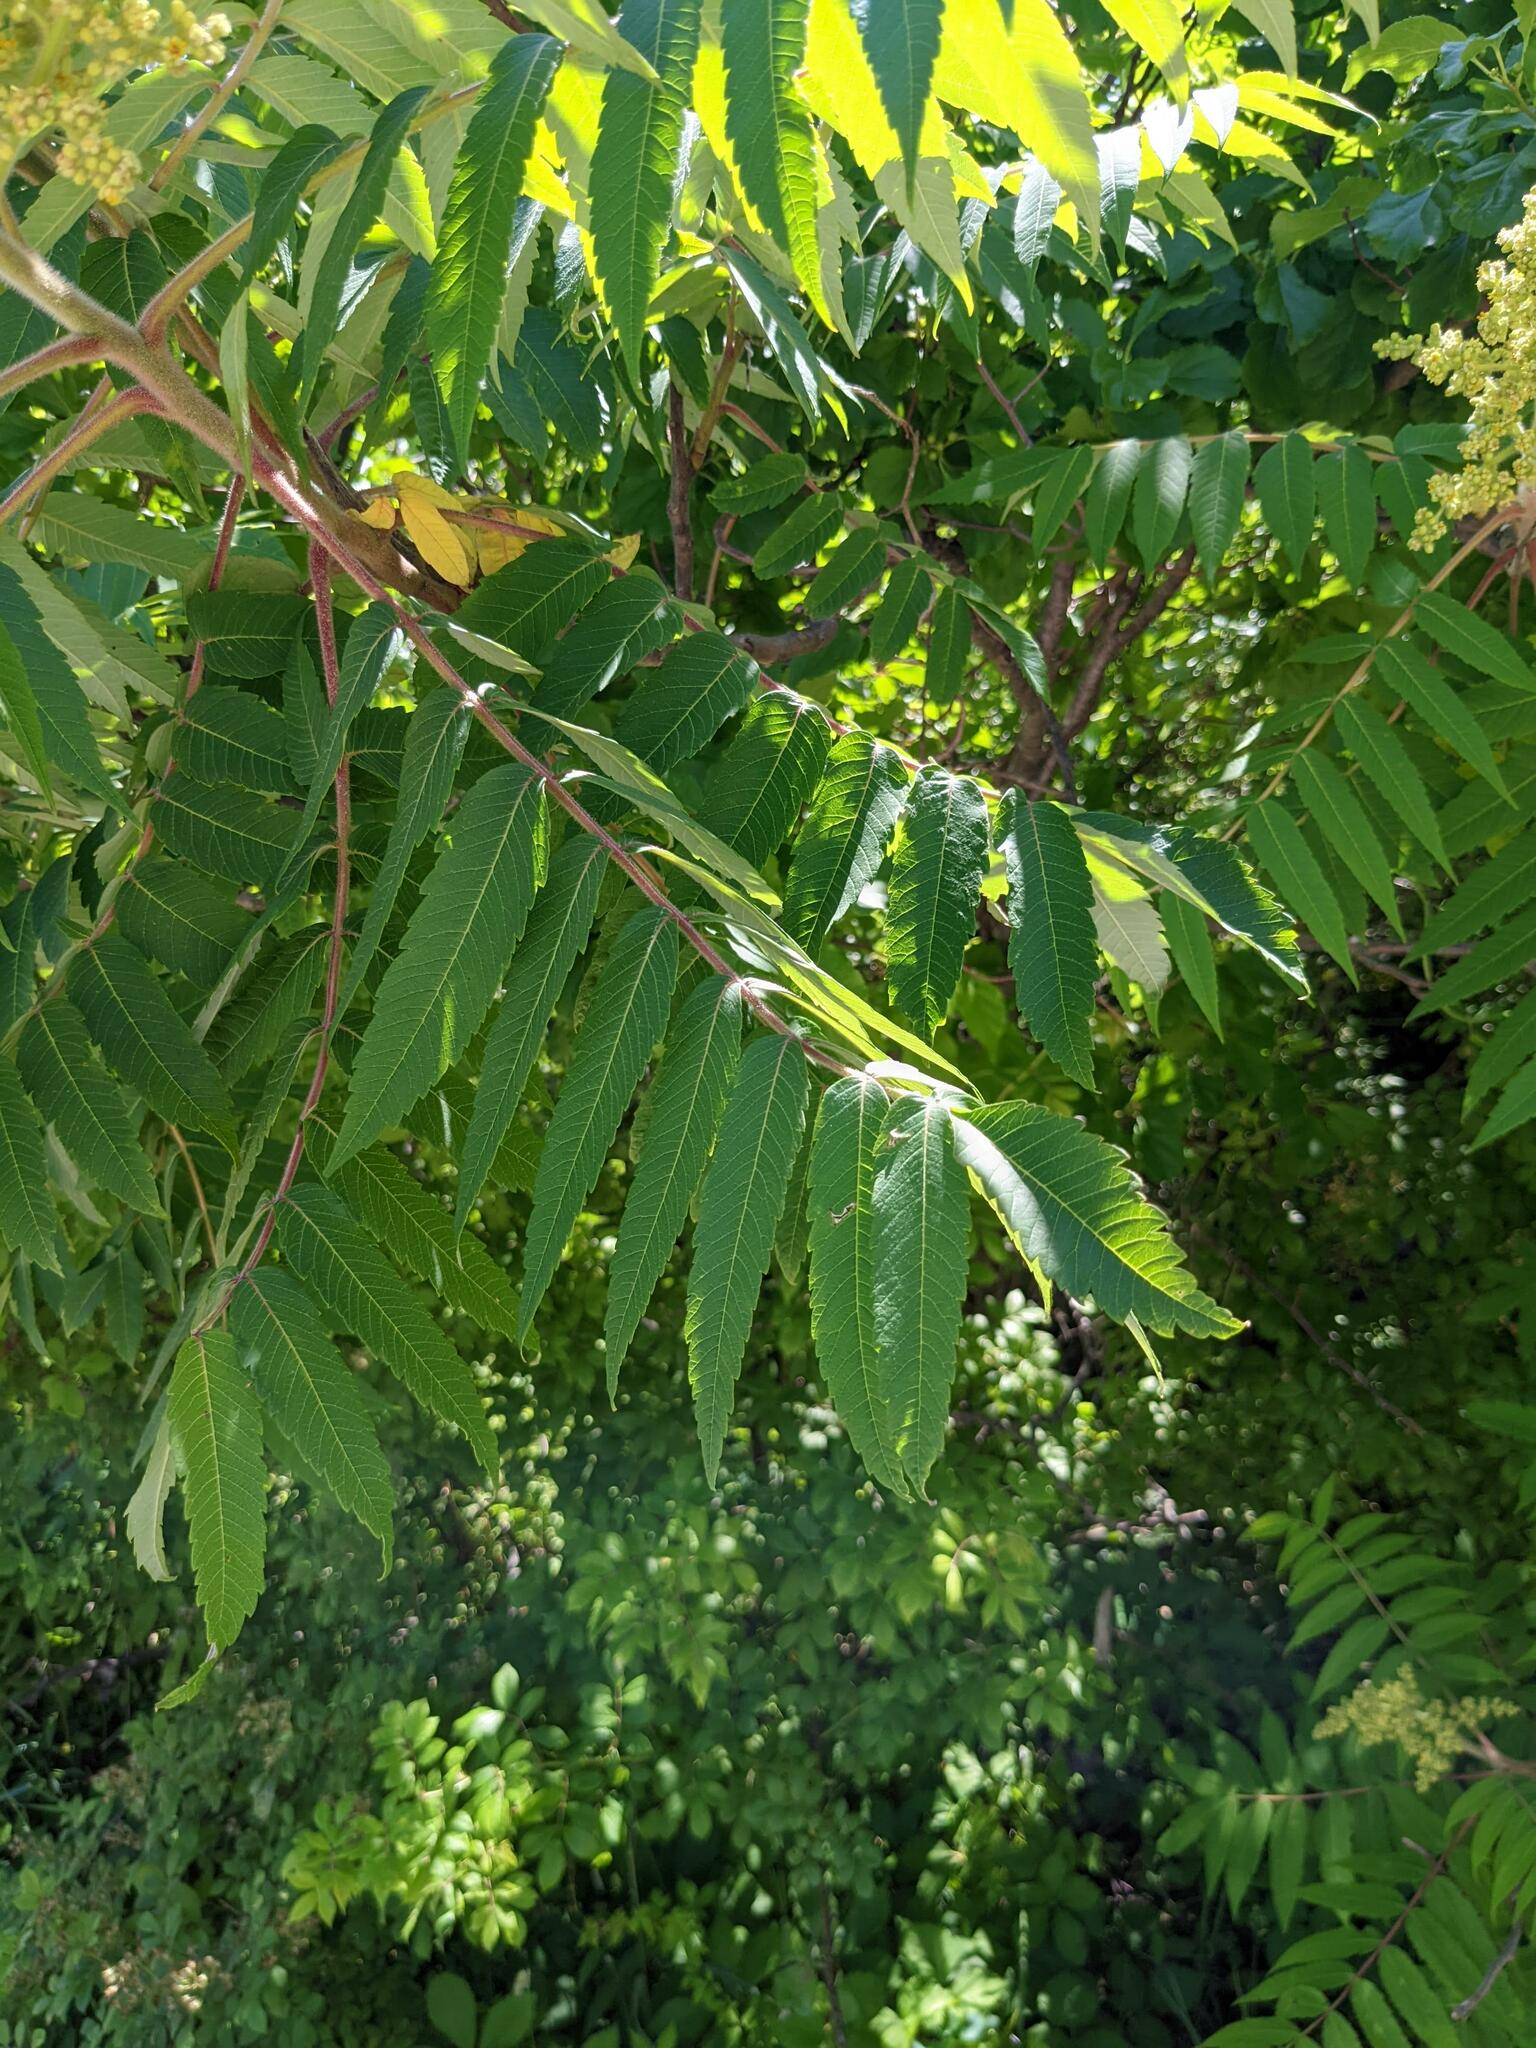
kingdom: Plantae
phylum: Tracheophyta
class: Magnoliopsida
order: Sapindales
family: Anacardiaceae
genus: Rhus
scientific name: Rhus typhina
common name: Staghorn sumac
